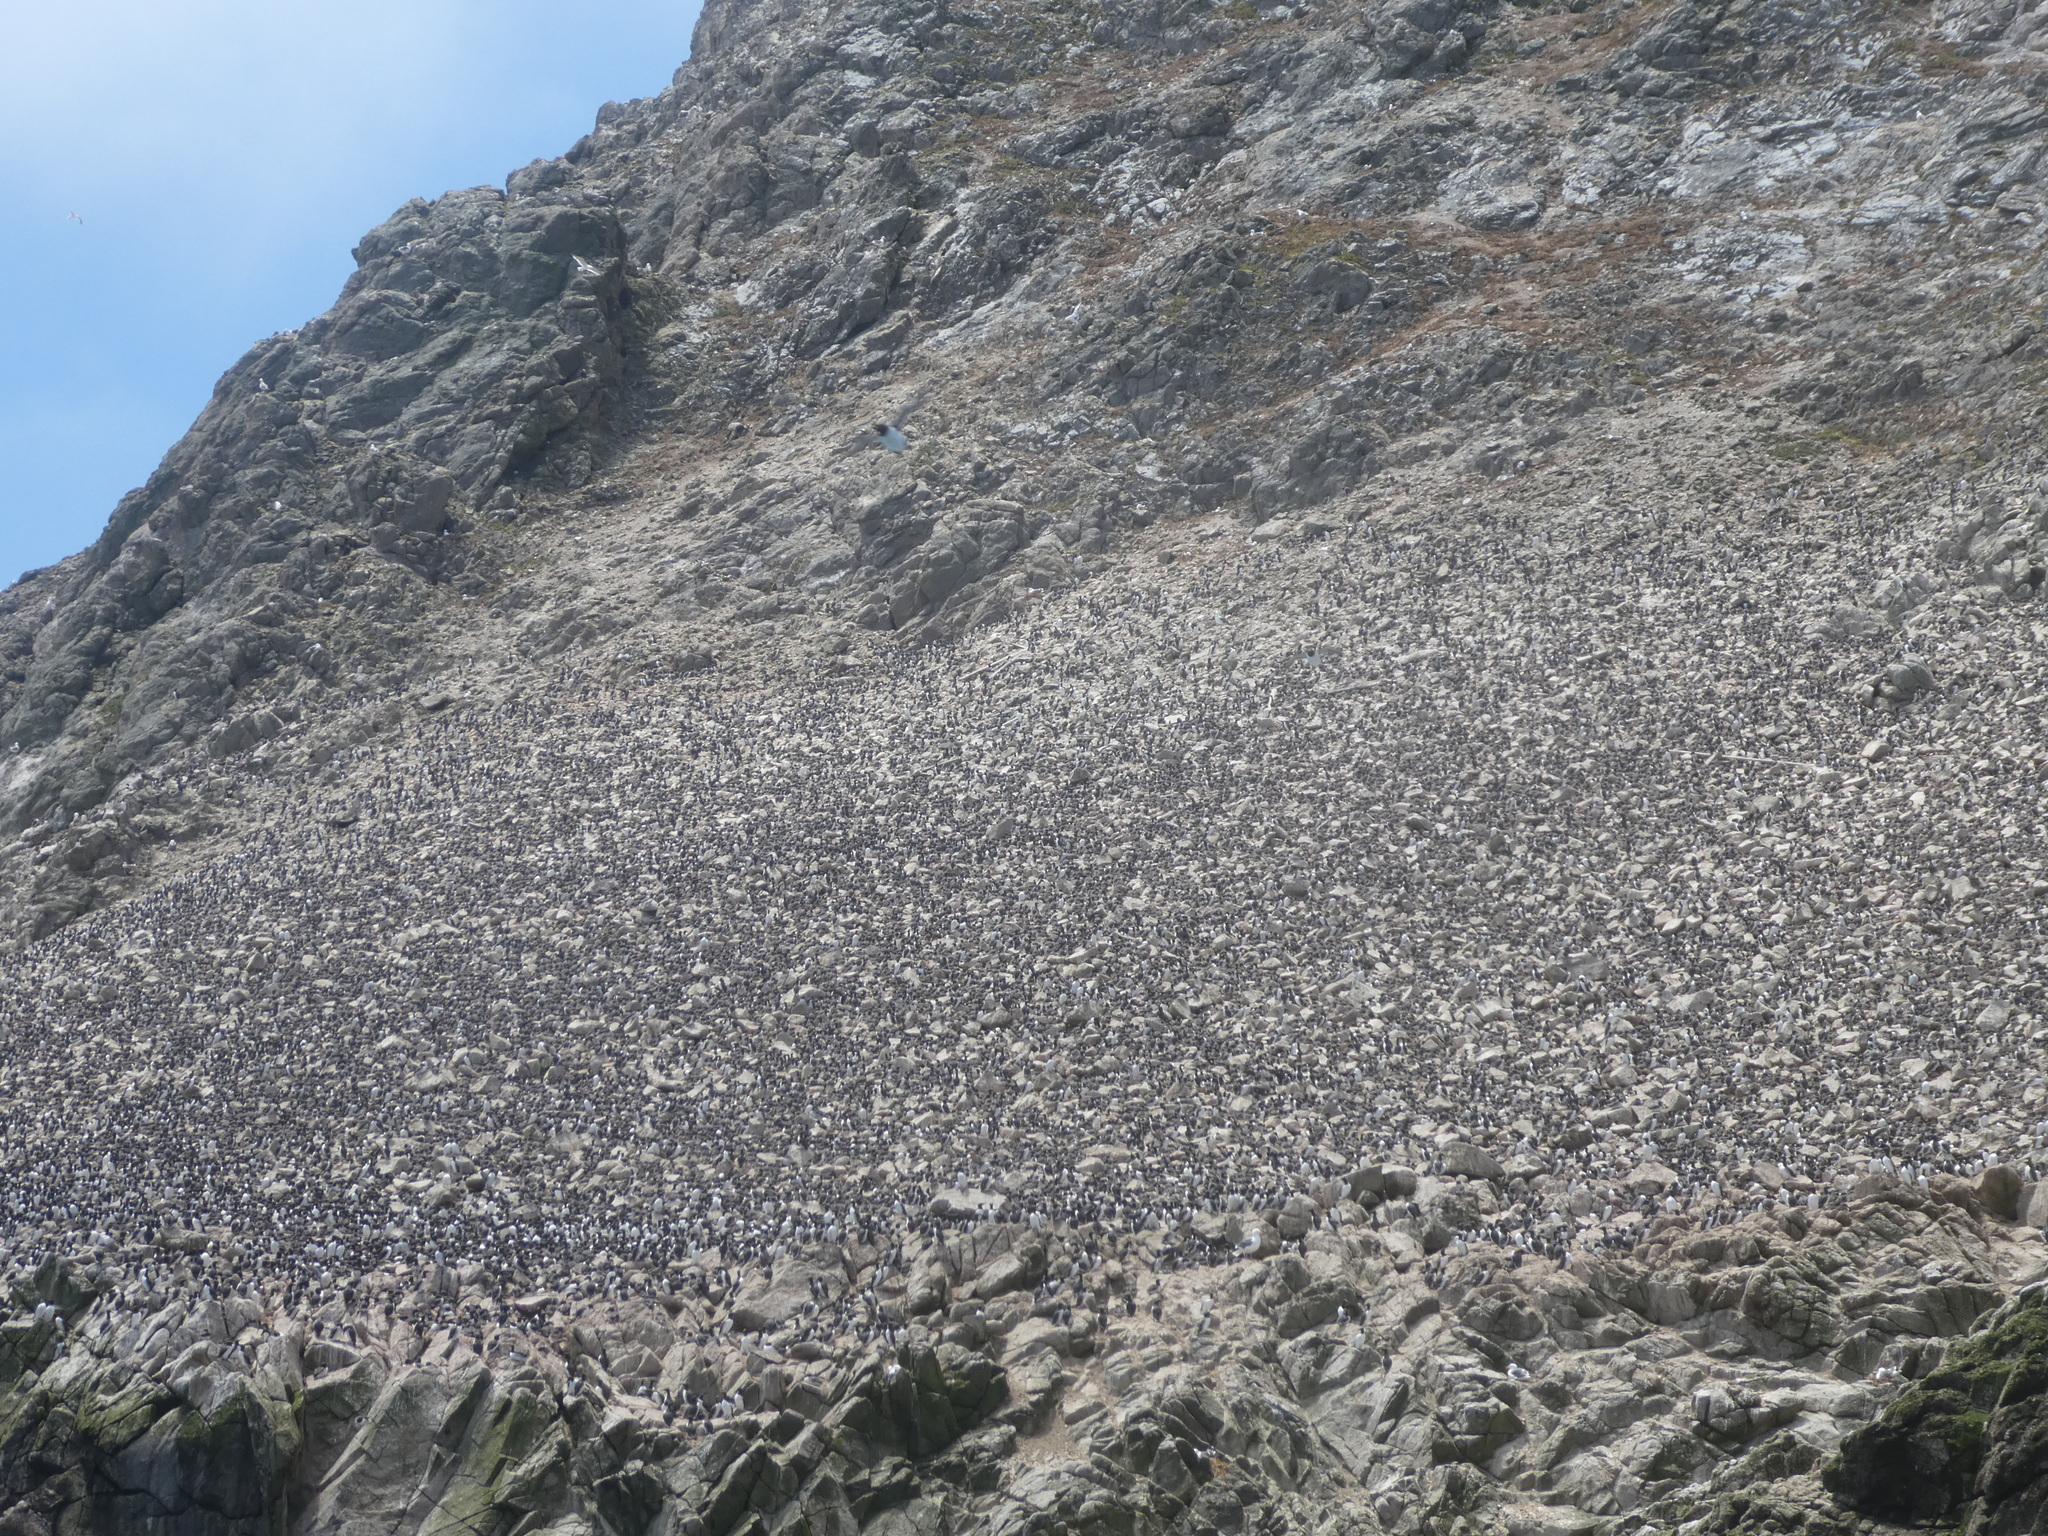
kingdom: Animalia
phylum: Chordata
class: Aves
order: Charadriiformes
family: Alcidae
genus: Uria
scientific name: Uria aalge
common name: Common murre
